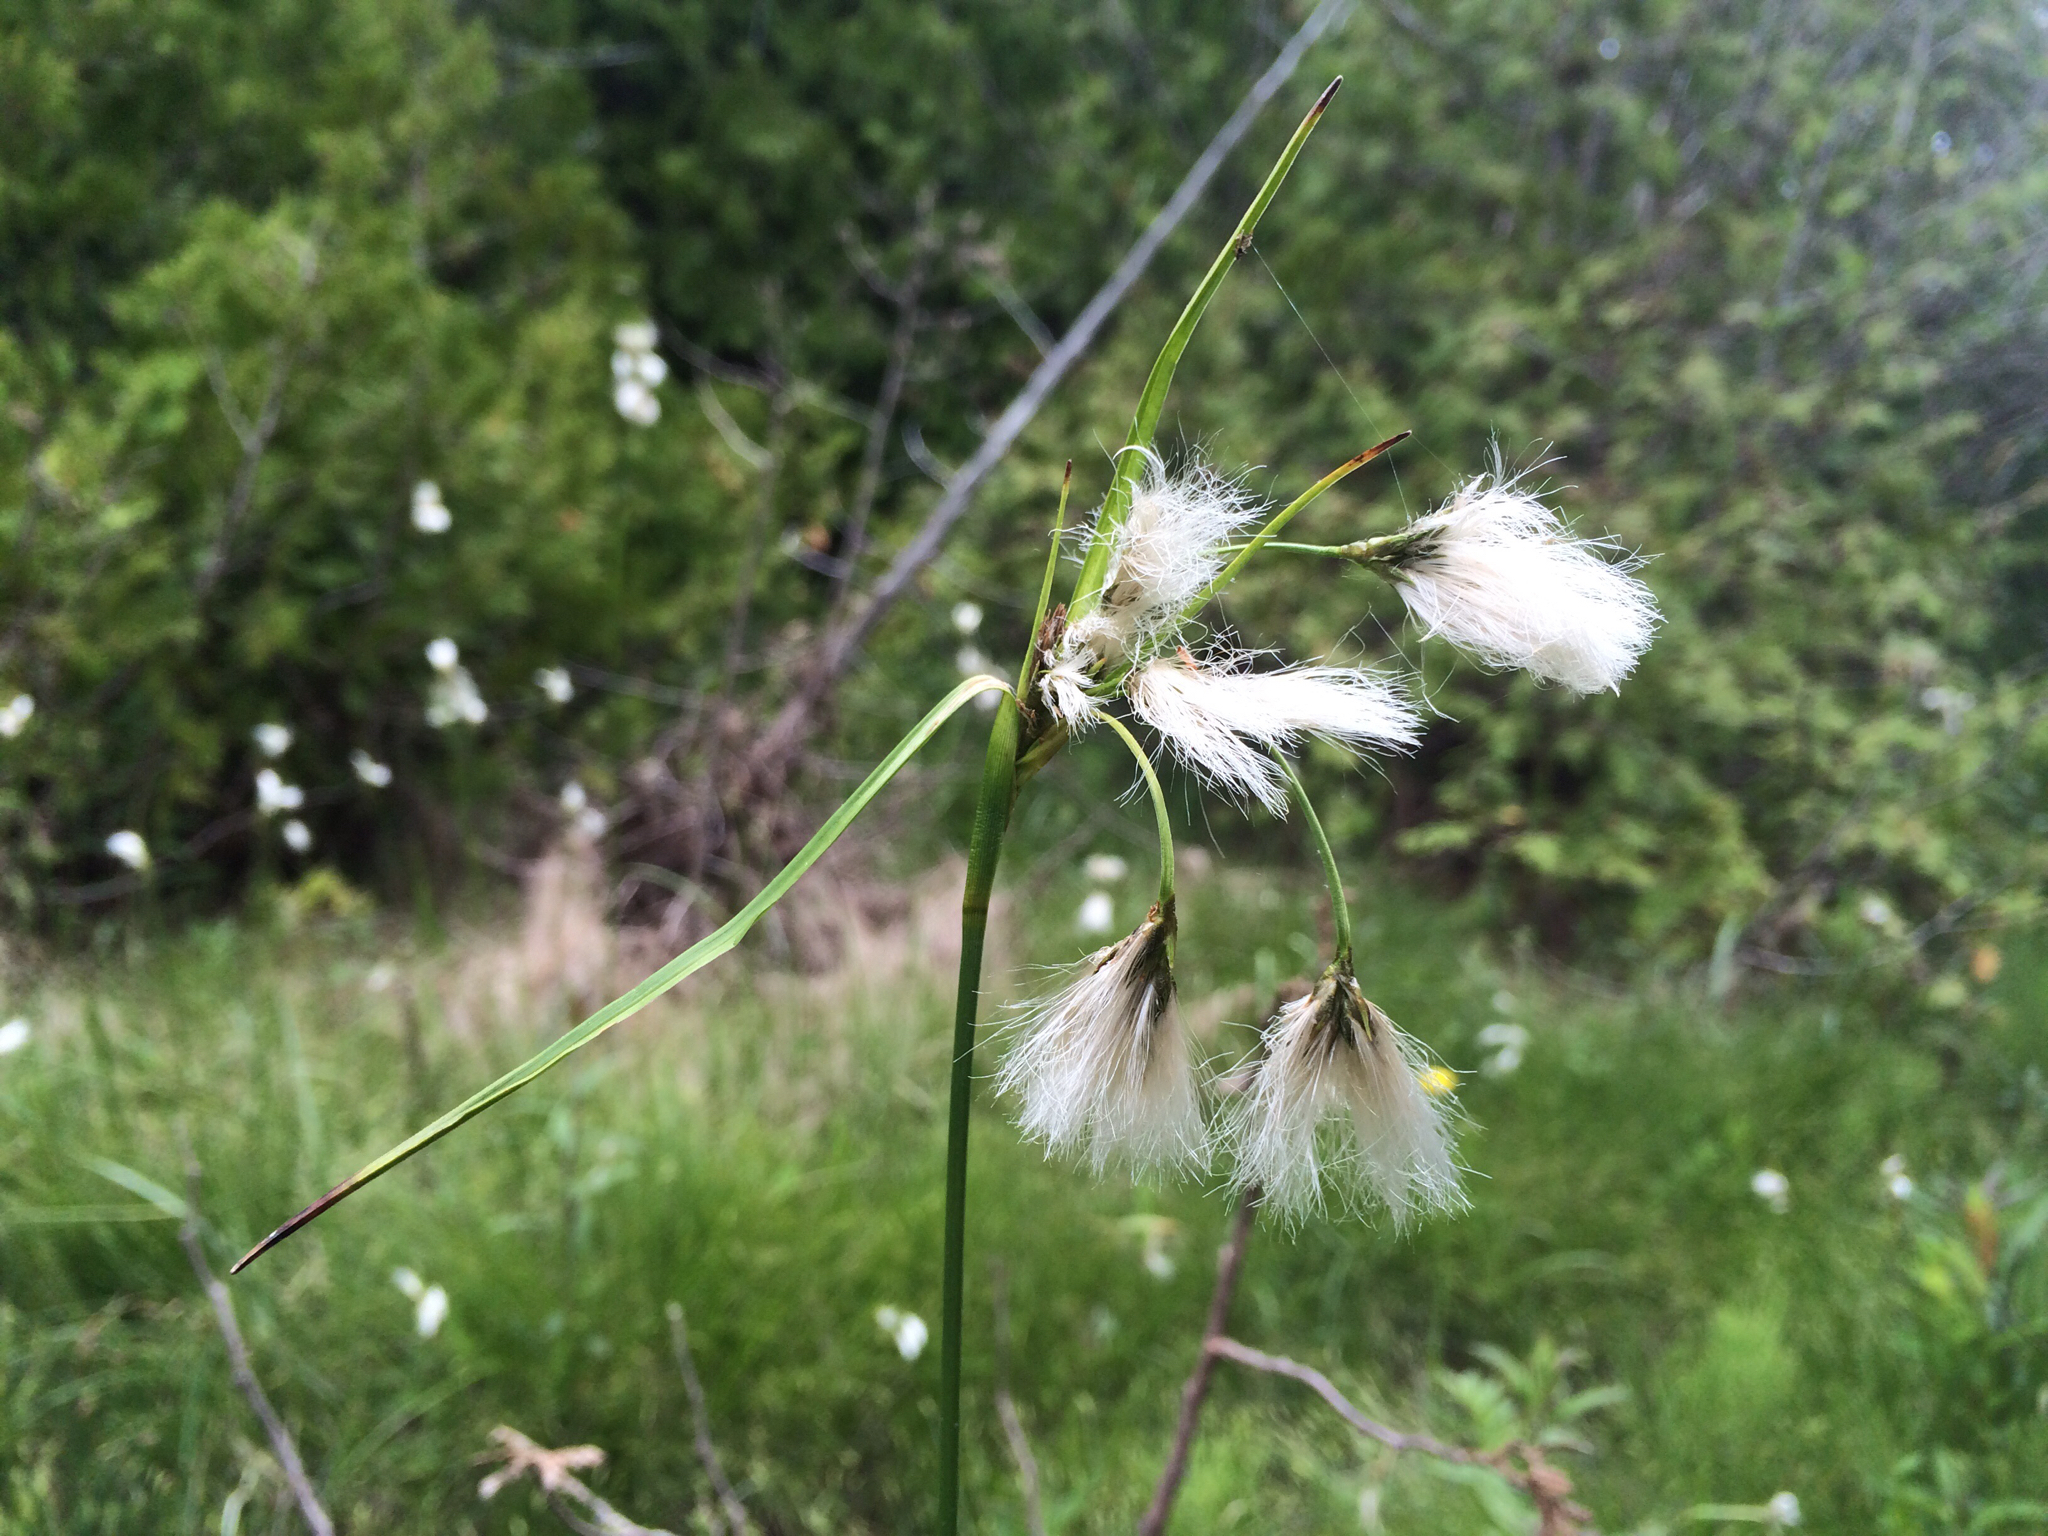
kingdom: Plantae
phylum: Tracheophyta
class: Liliopsida
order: Poales
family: Cyperaceae
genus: Eriophorum
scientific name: Eriophorum viridicarinatum
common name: Green-keeled cottongrass
